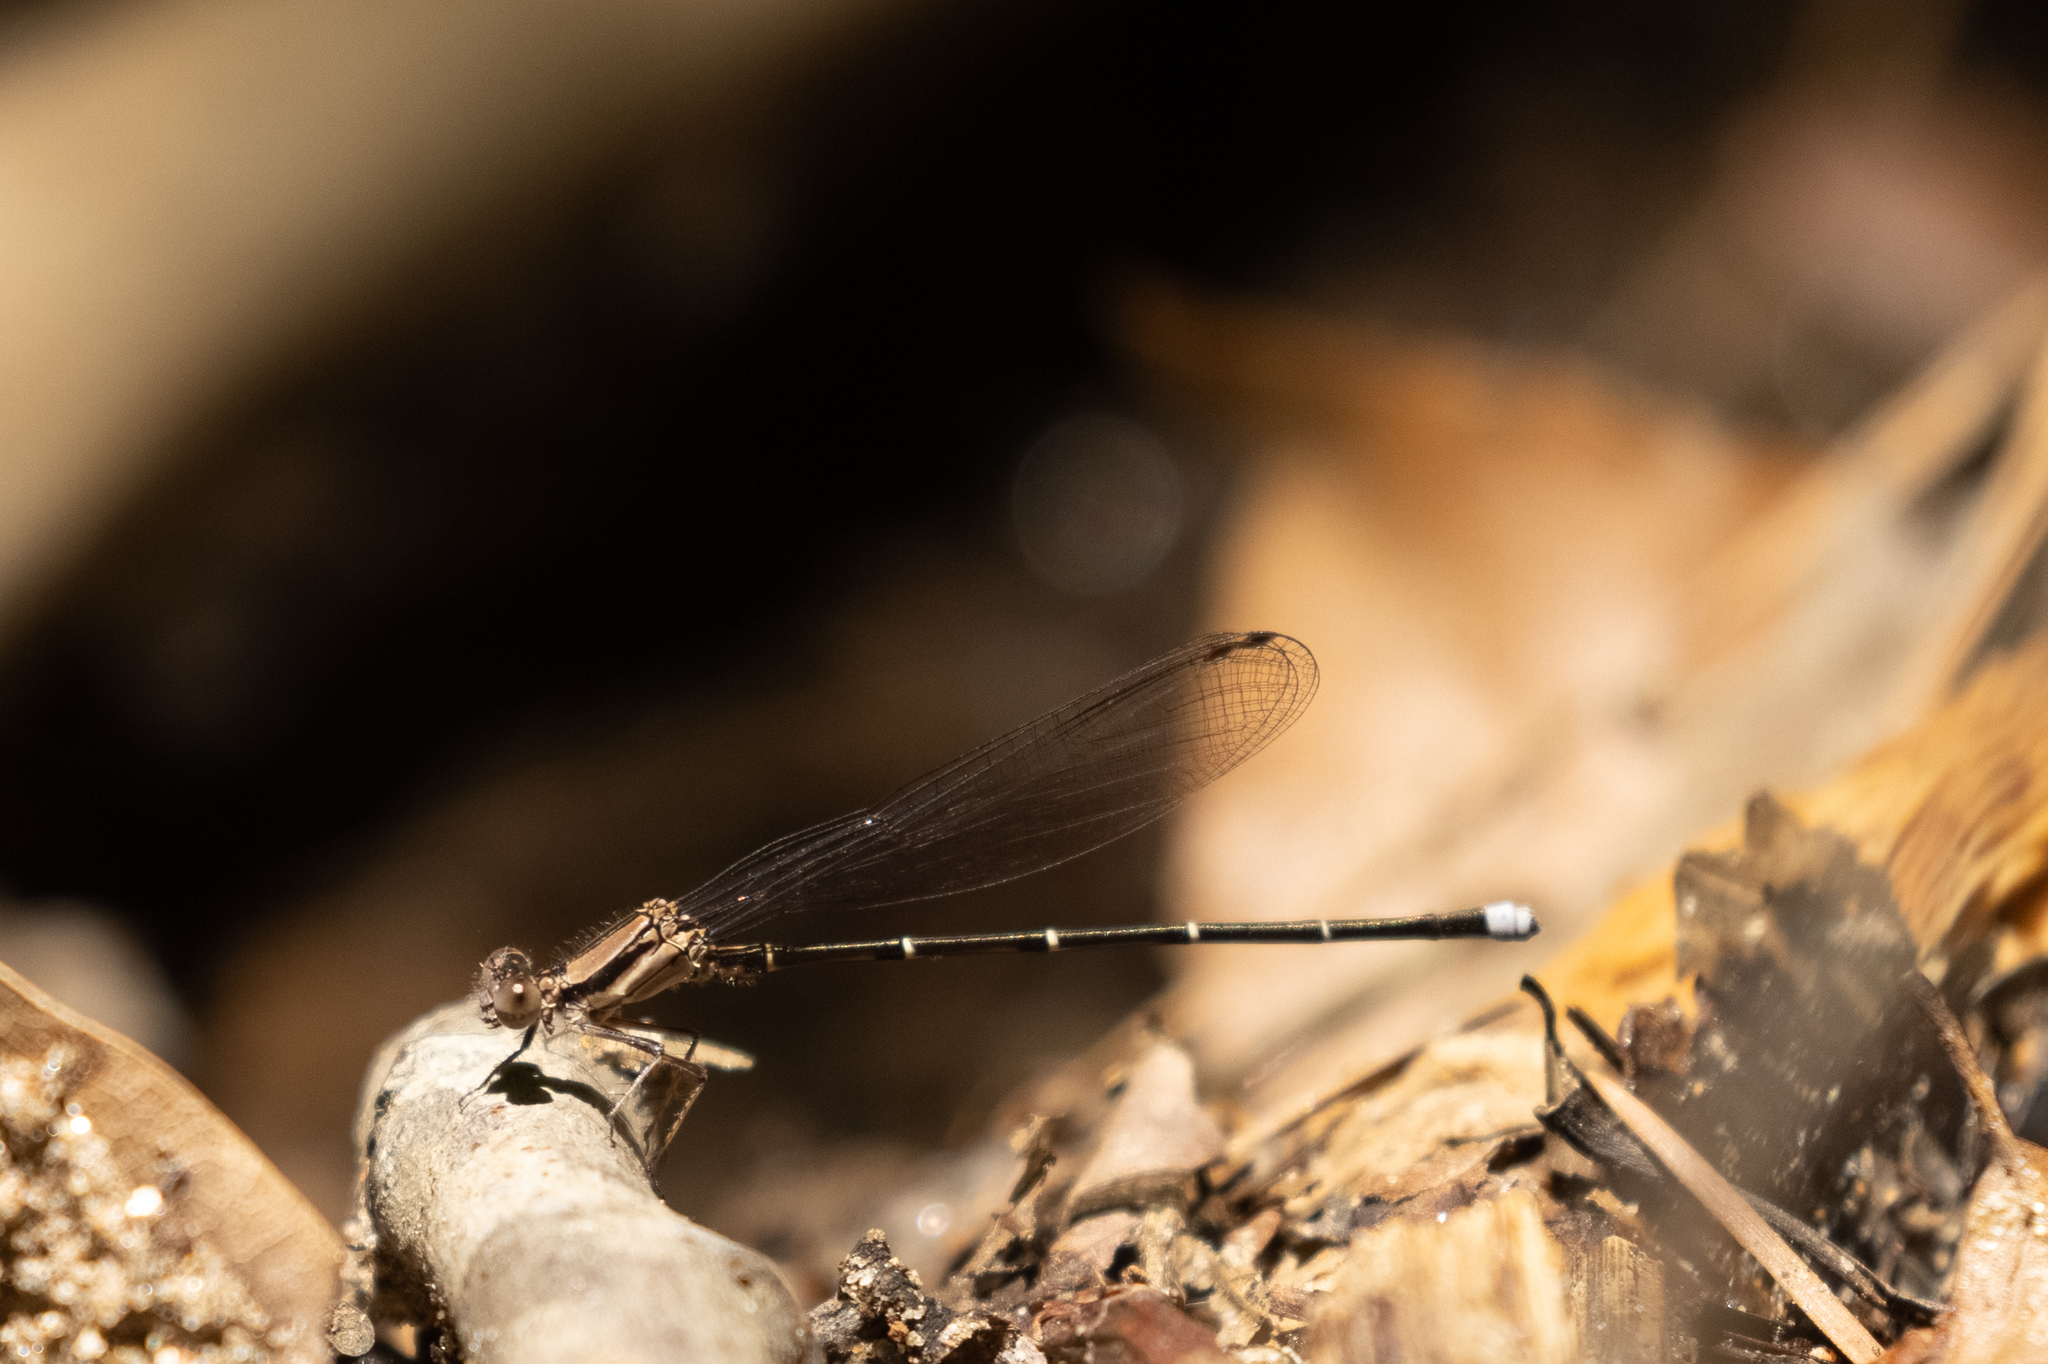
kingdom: Animalia
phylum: Arthropoda
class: Insecta
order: Odonata
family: Coenagrionidae
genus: Argia
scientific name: Argia tibialis
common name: Blue-tipped dancer
